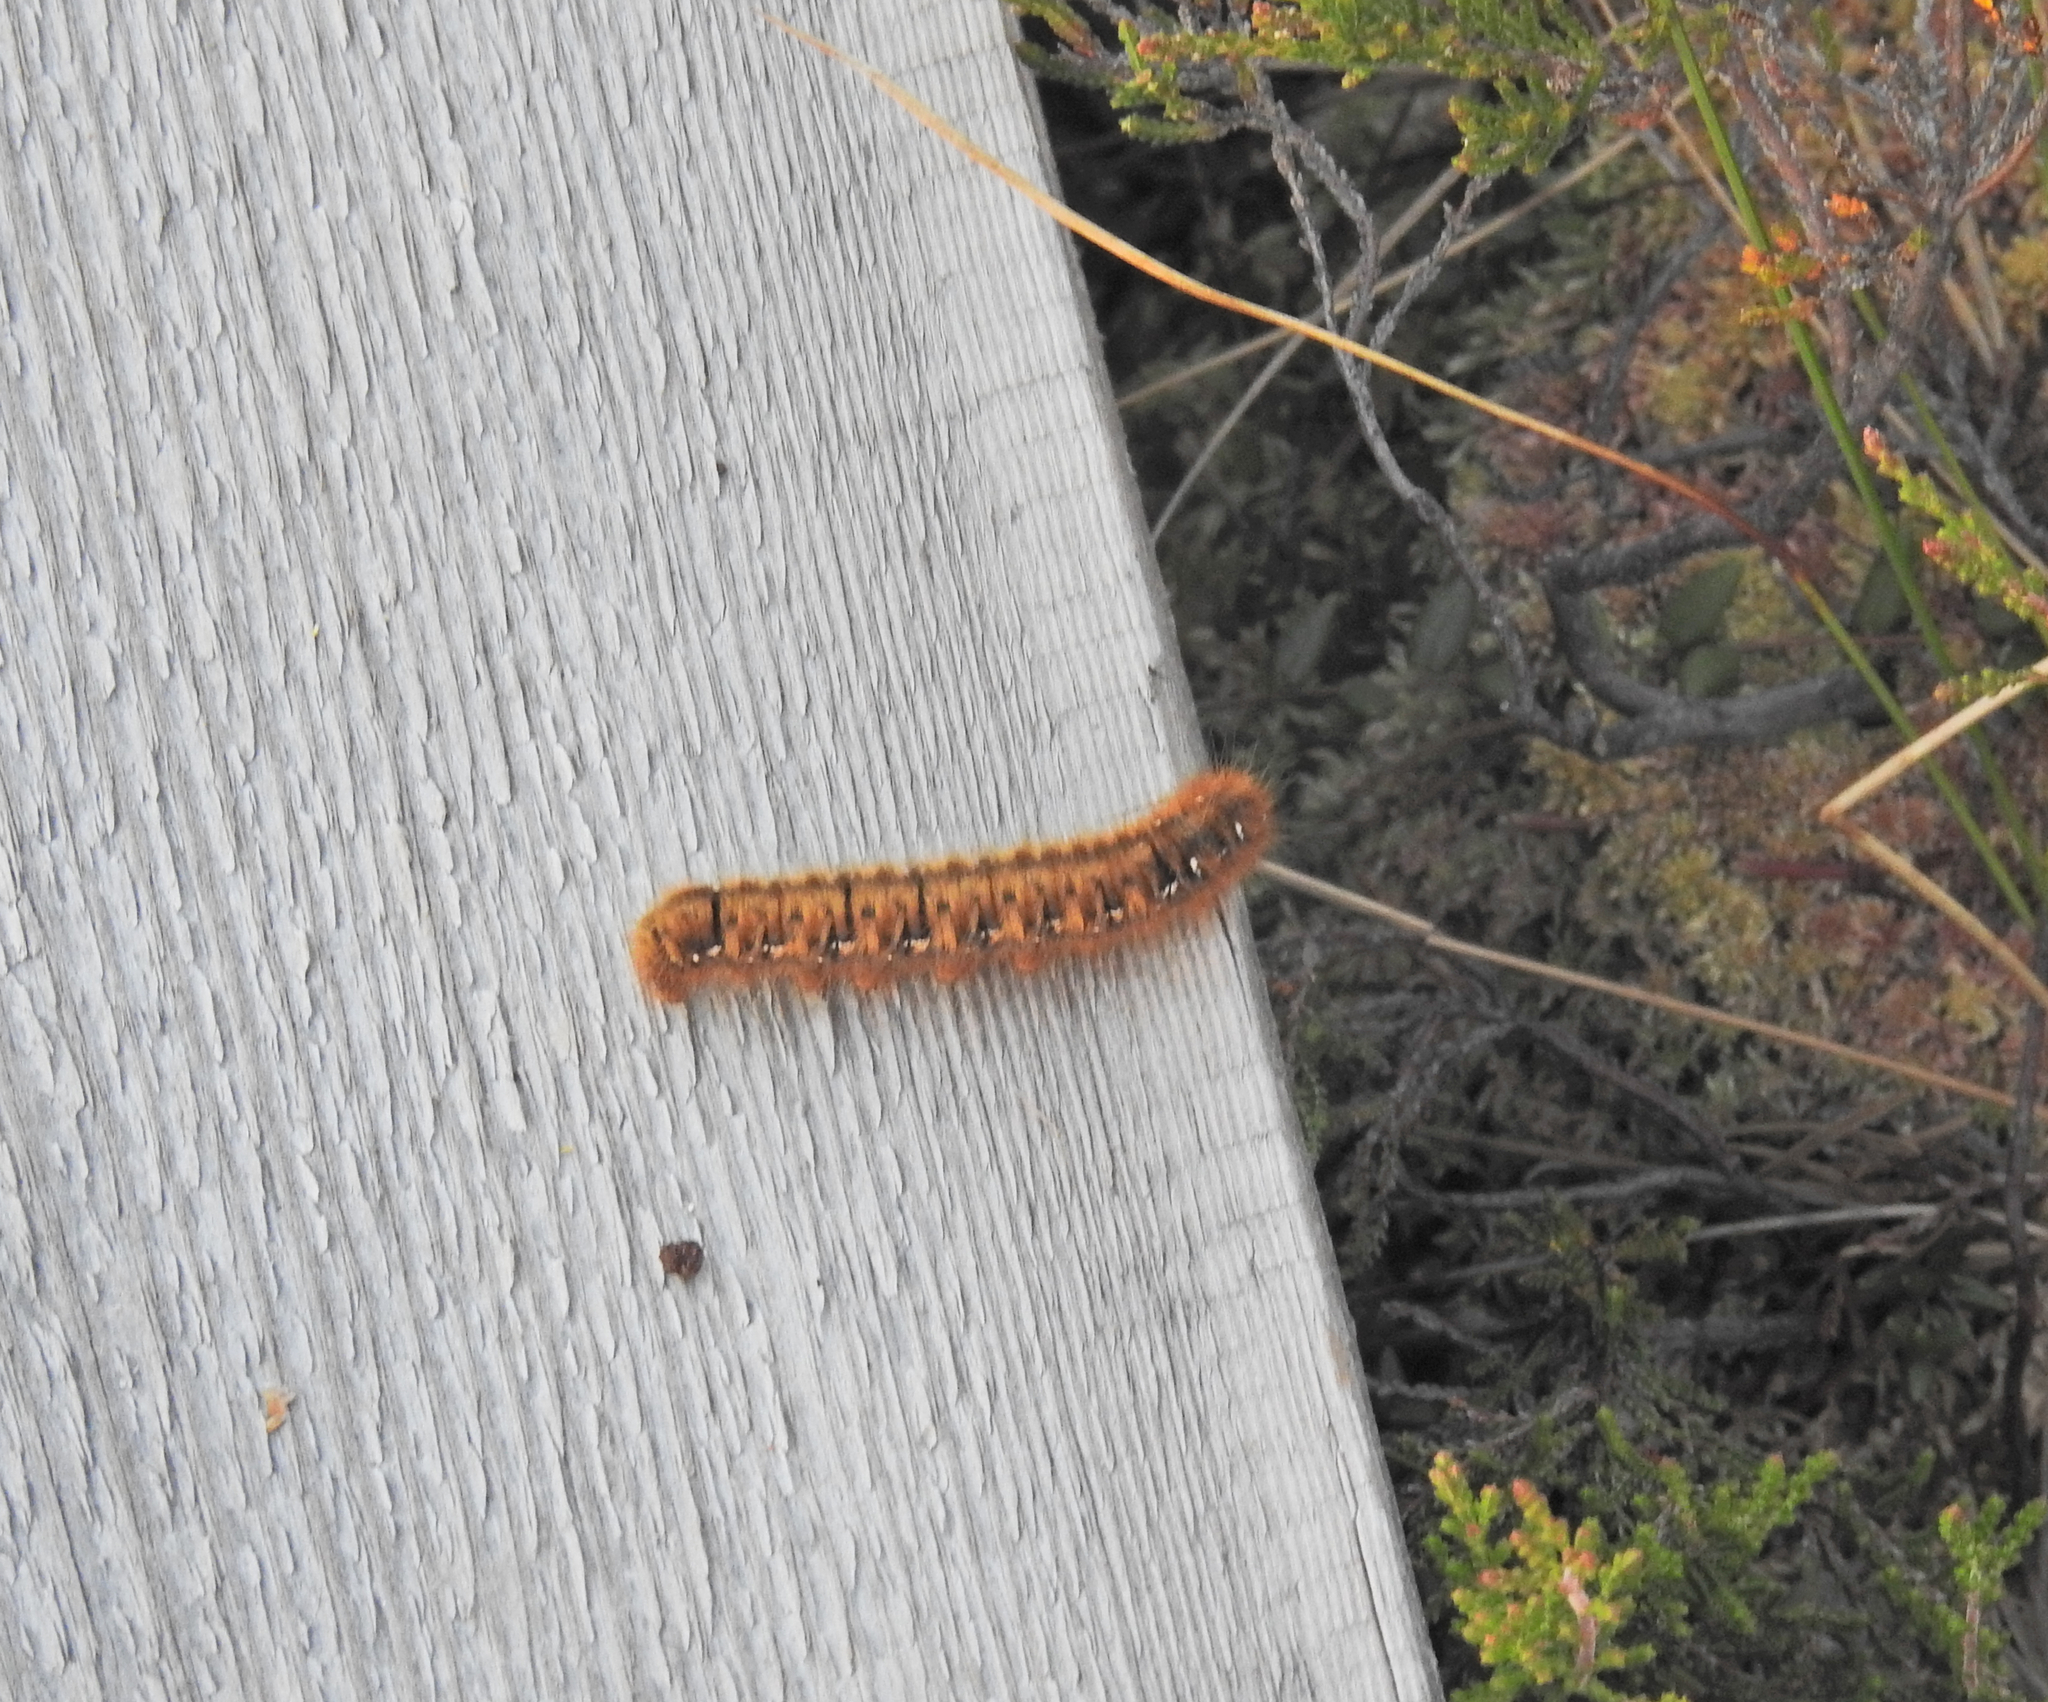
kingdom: Animalia
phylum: Arthropoda
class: Insecta
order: Lepidoptera
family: Lasiocampidae
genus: Lasiocampa
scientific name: Lasiocampa quercus
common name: Oak eggar
